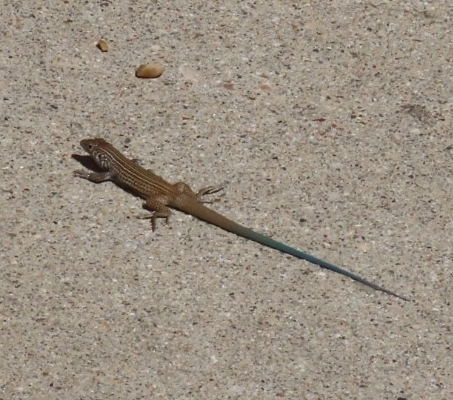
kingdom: Animalia
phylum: Chordata
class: Squamata
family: Teiidae
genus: Aspidoscelis
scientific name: Aspidoscelis tigris
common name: Tiger whiptail
